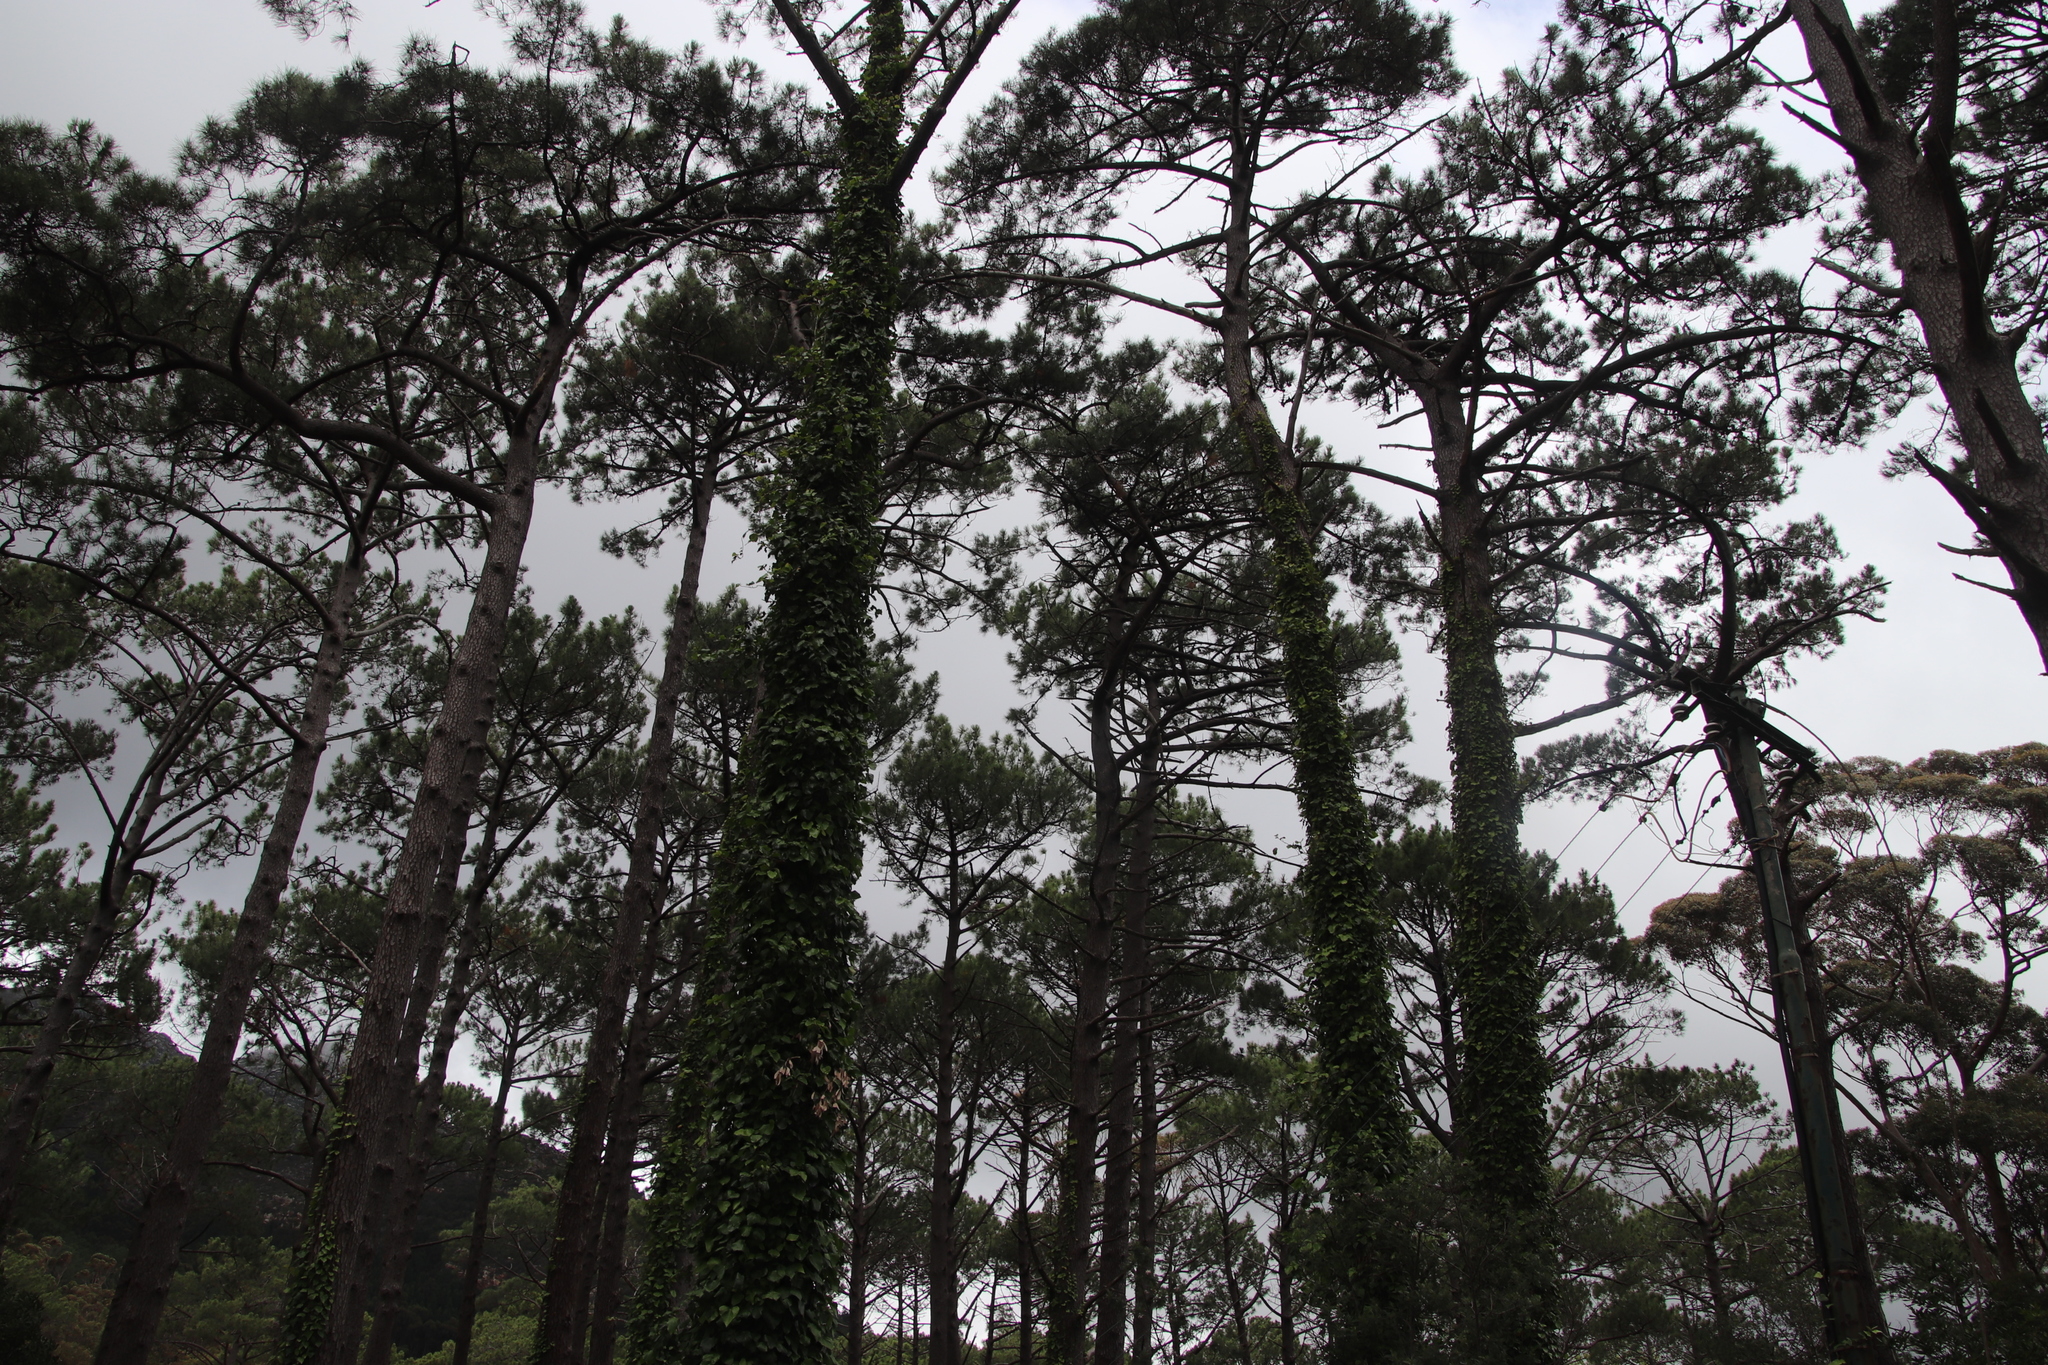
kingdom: Plantae
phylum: Tracheophyta
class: Pinopsida
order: Pinales
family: Pinaceae
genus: Pinus
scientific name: Pinus pinaster
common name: Maritime pine
